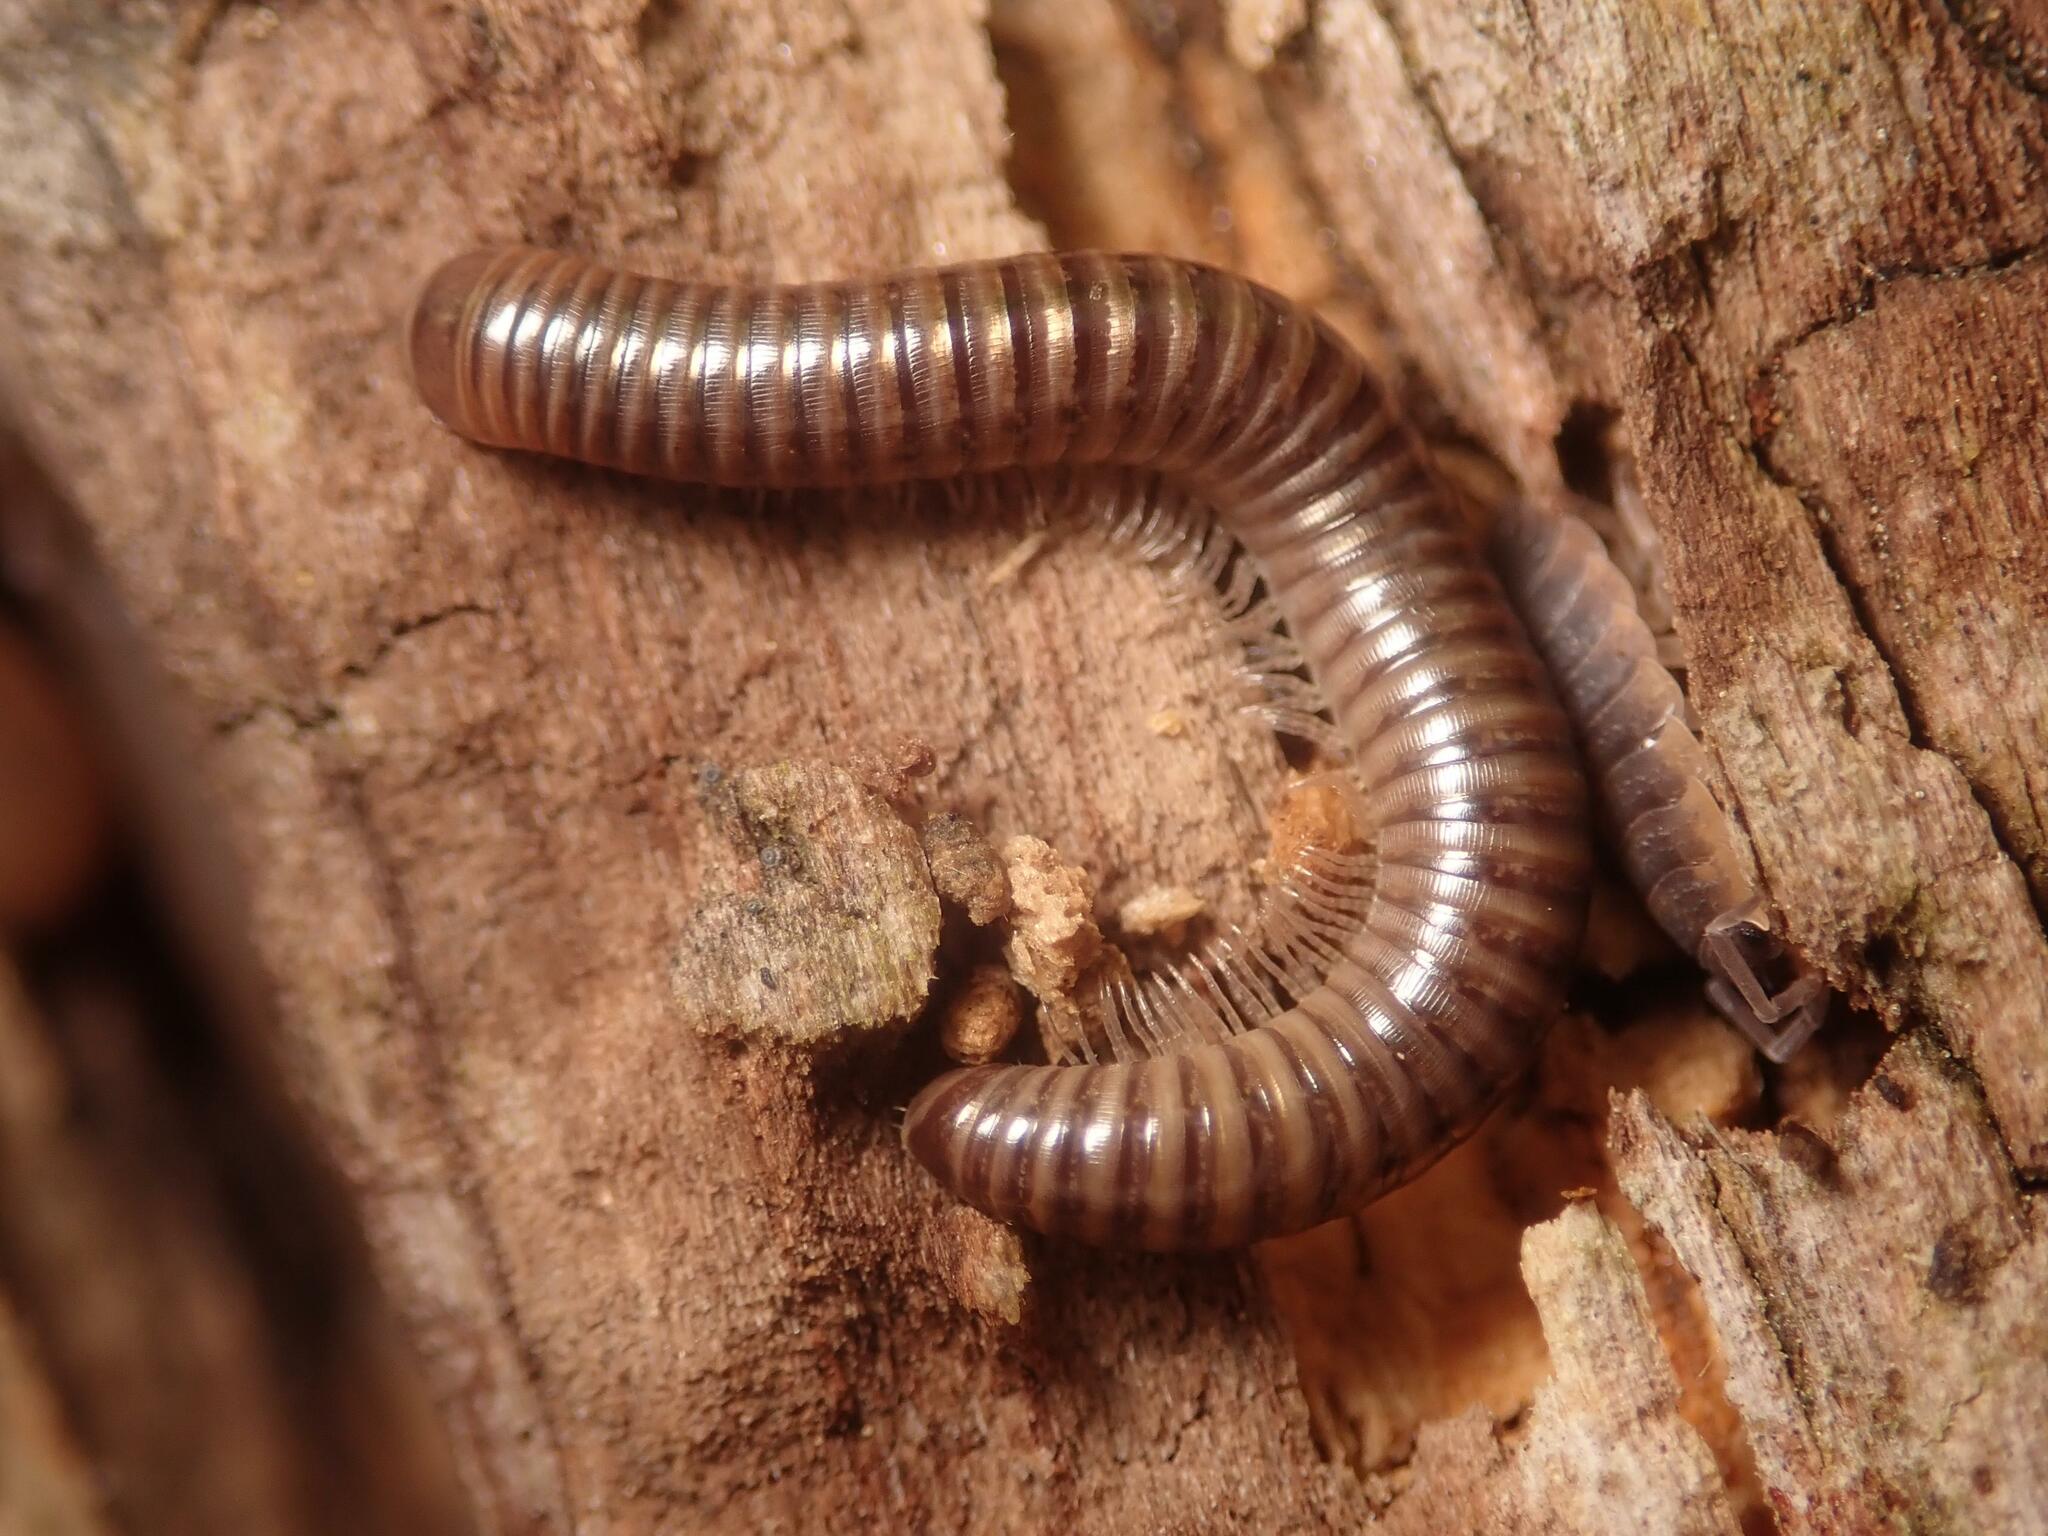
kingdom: Animalia
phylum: Arthropoda
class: Diplopoda
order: Julida
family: Julidae
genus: Cylindroiulus
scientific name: Cylindroiulus caeruleocinctus
